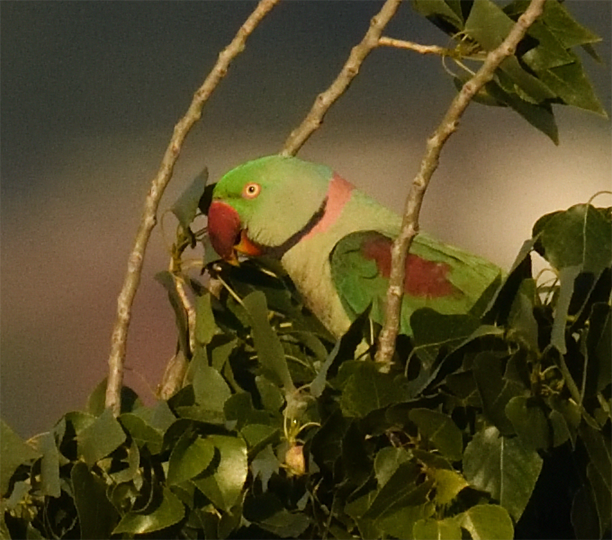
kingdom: Animalia
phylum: Chordata
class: Aves
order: Psittaciformes
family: Psittacidae
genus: Psittacula
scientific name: Psittacula eupatria
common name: Alexandrine parakeet
